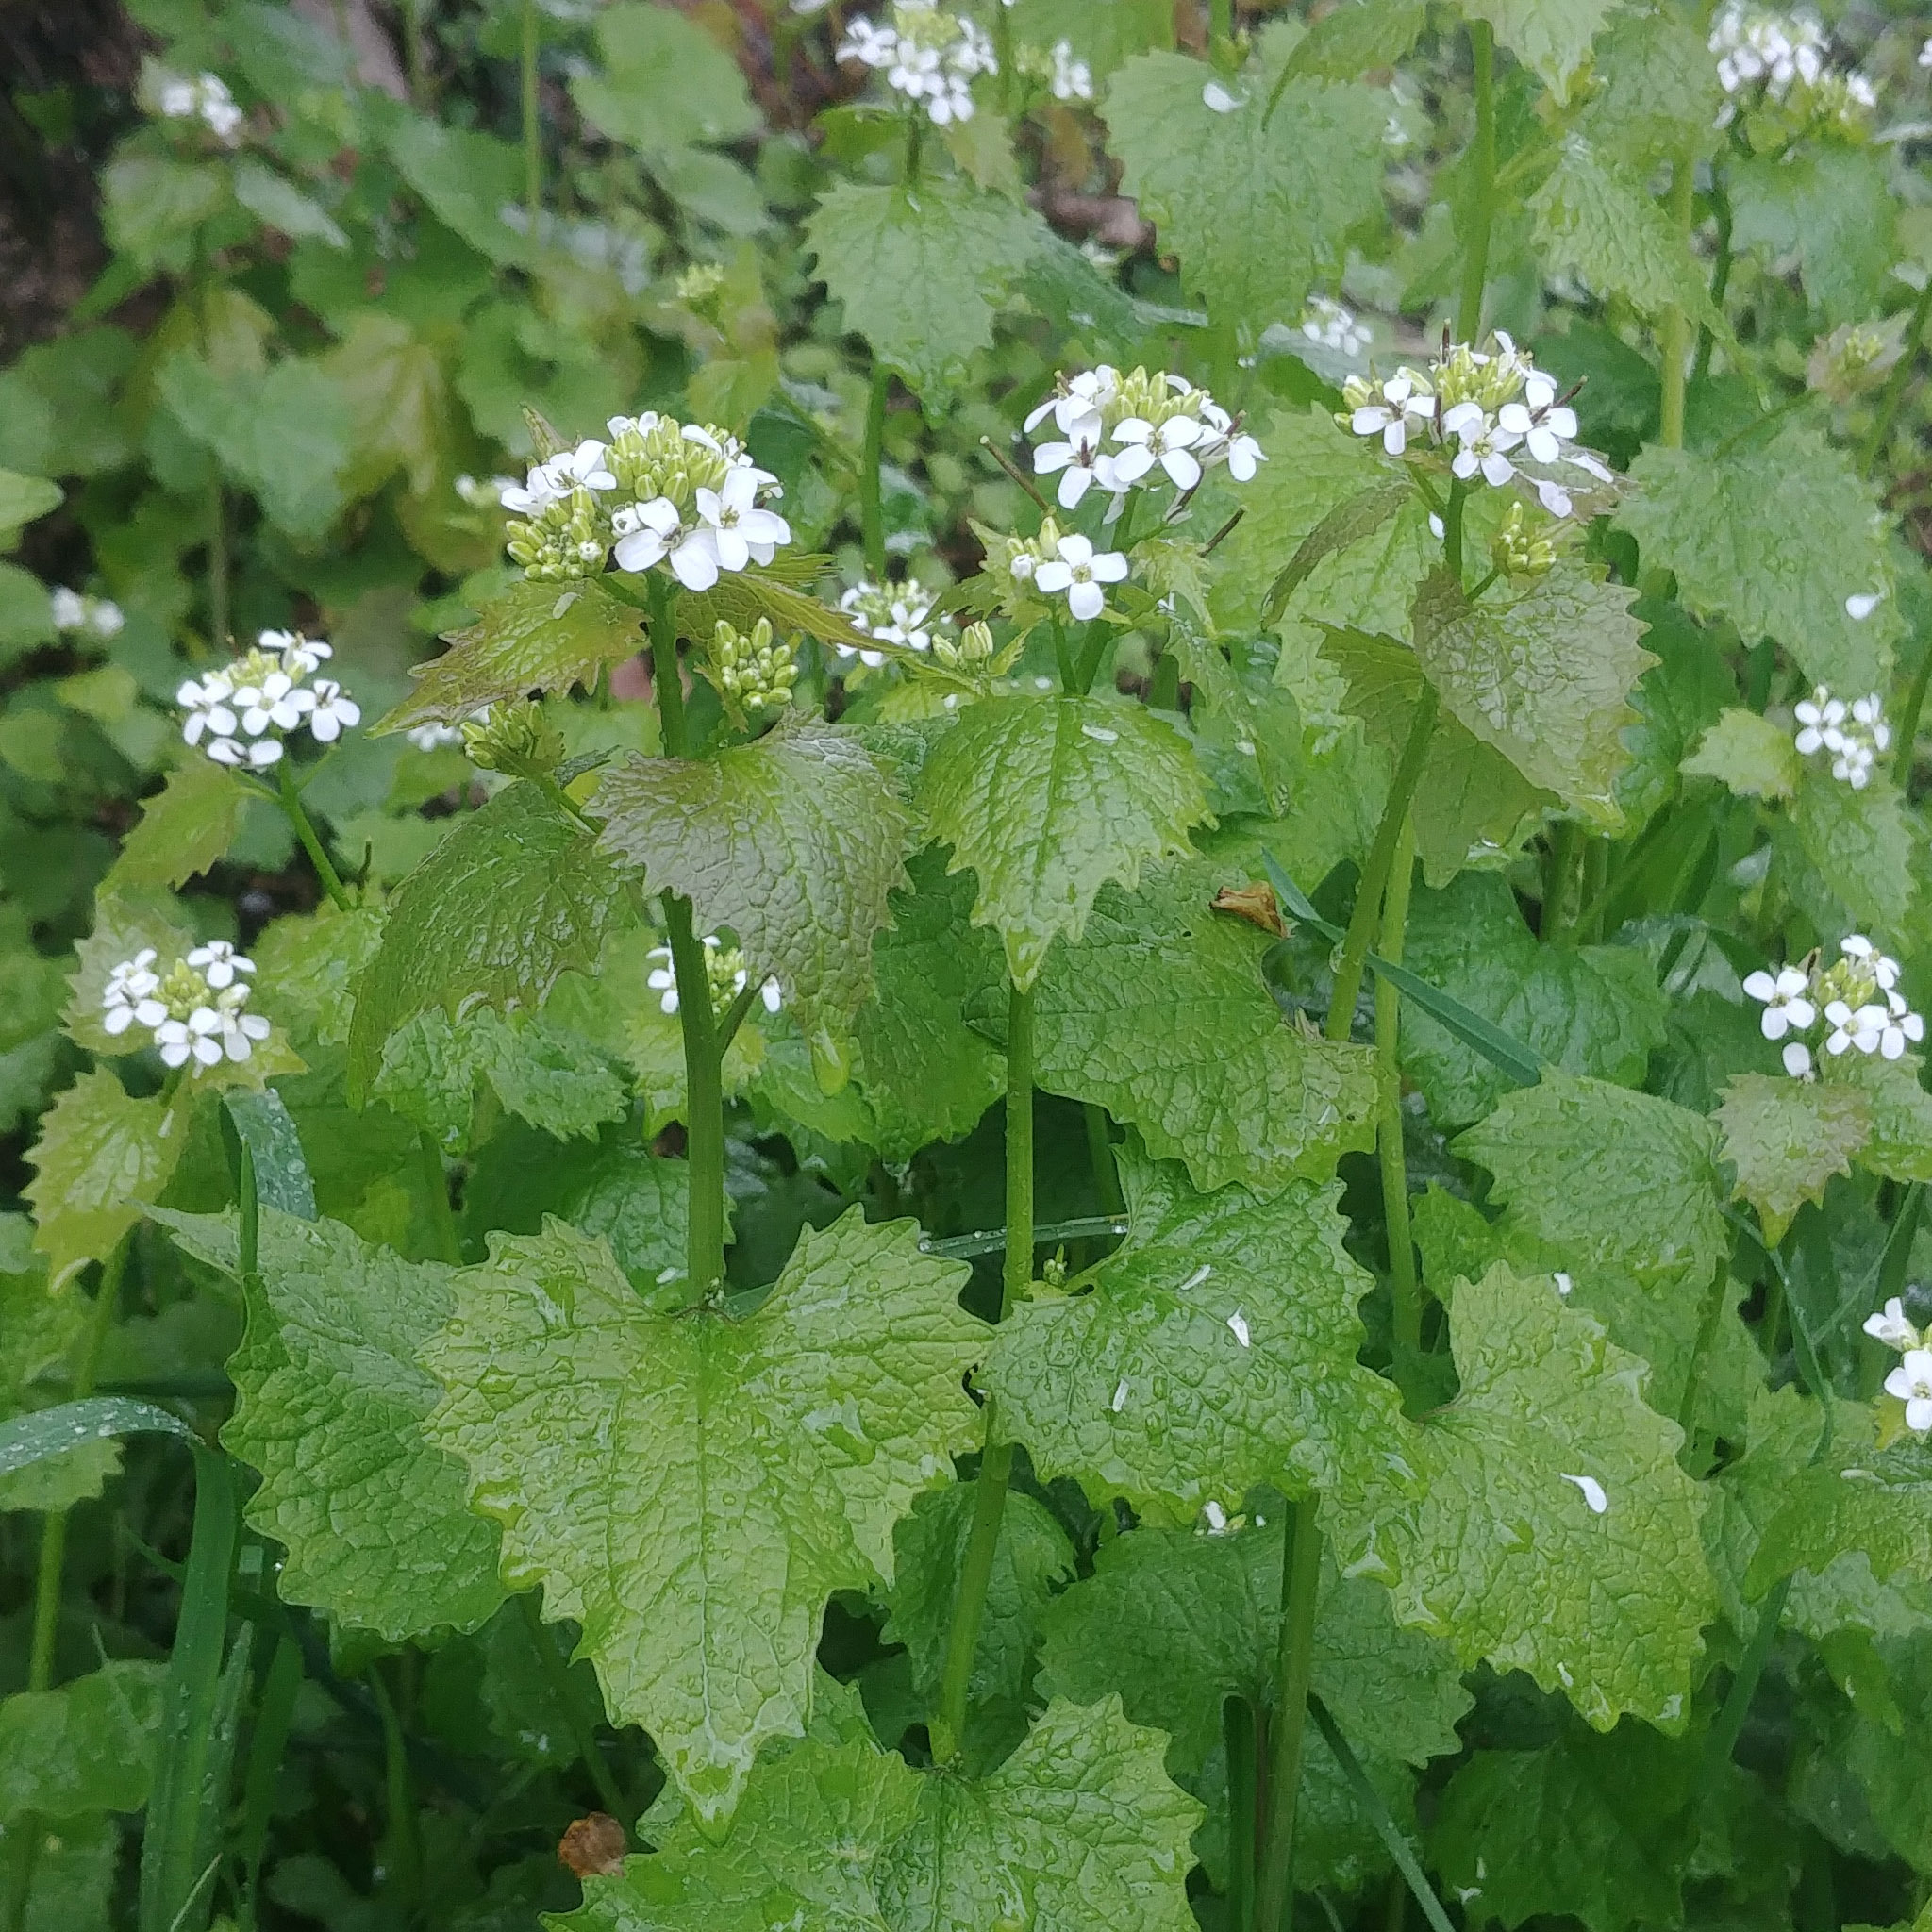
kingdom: Plantae
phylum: Tracheophyta
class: Magnoliopsida
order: Brassicales
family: Brassicaceae
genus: Alliaria
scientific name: Alliaria petiolata
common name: Garlic mustard
